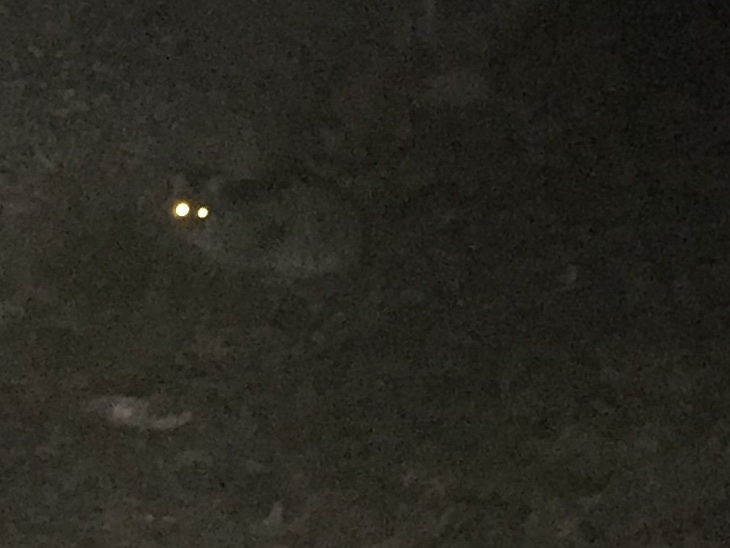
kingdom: Animalia
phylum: Chordata
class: Mammalia
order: Carnivora
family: Felidae
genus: Lynx
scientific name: Lynx rufus
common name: Bobcat
